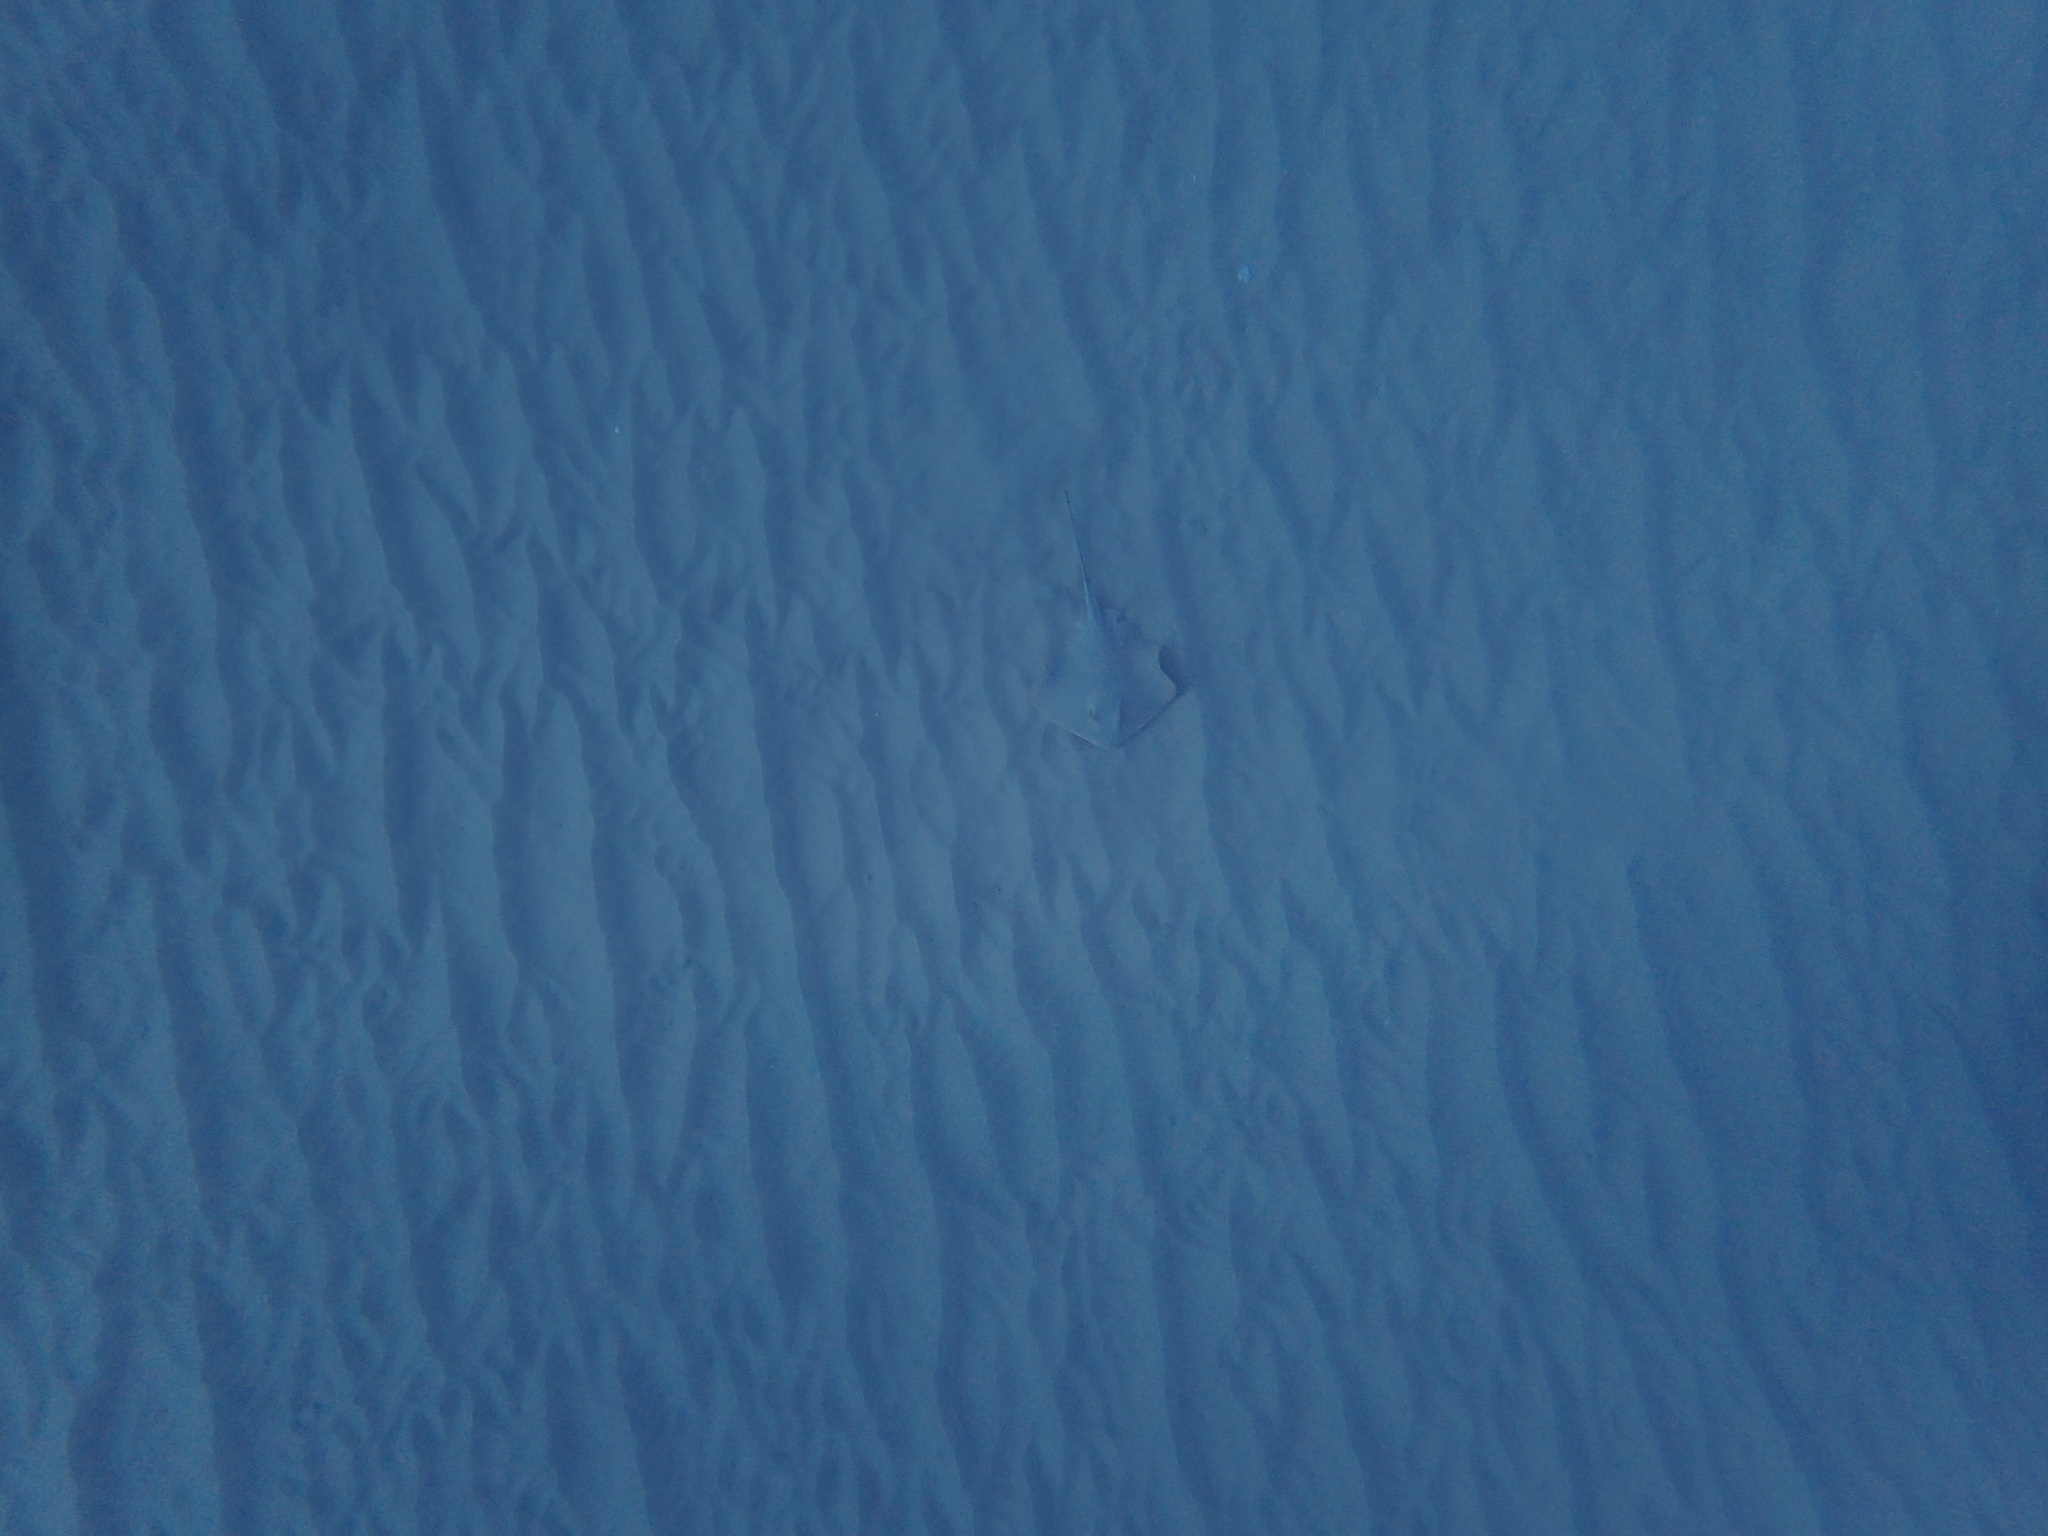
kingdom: Animalia
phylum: Chordata
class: Elasmobranchii
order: Myliobatiformes
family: Dasyatidae
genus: Dasyatis
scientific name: Dasyatis pastinaca
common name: Common stingray
